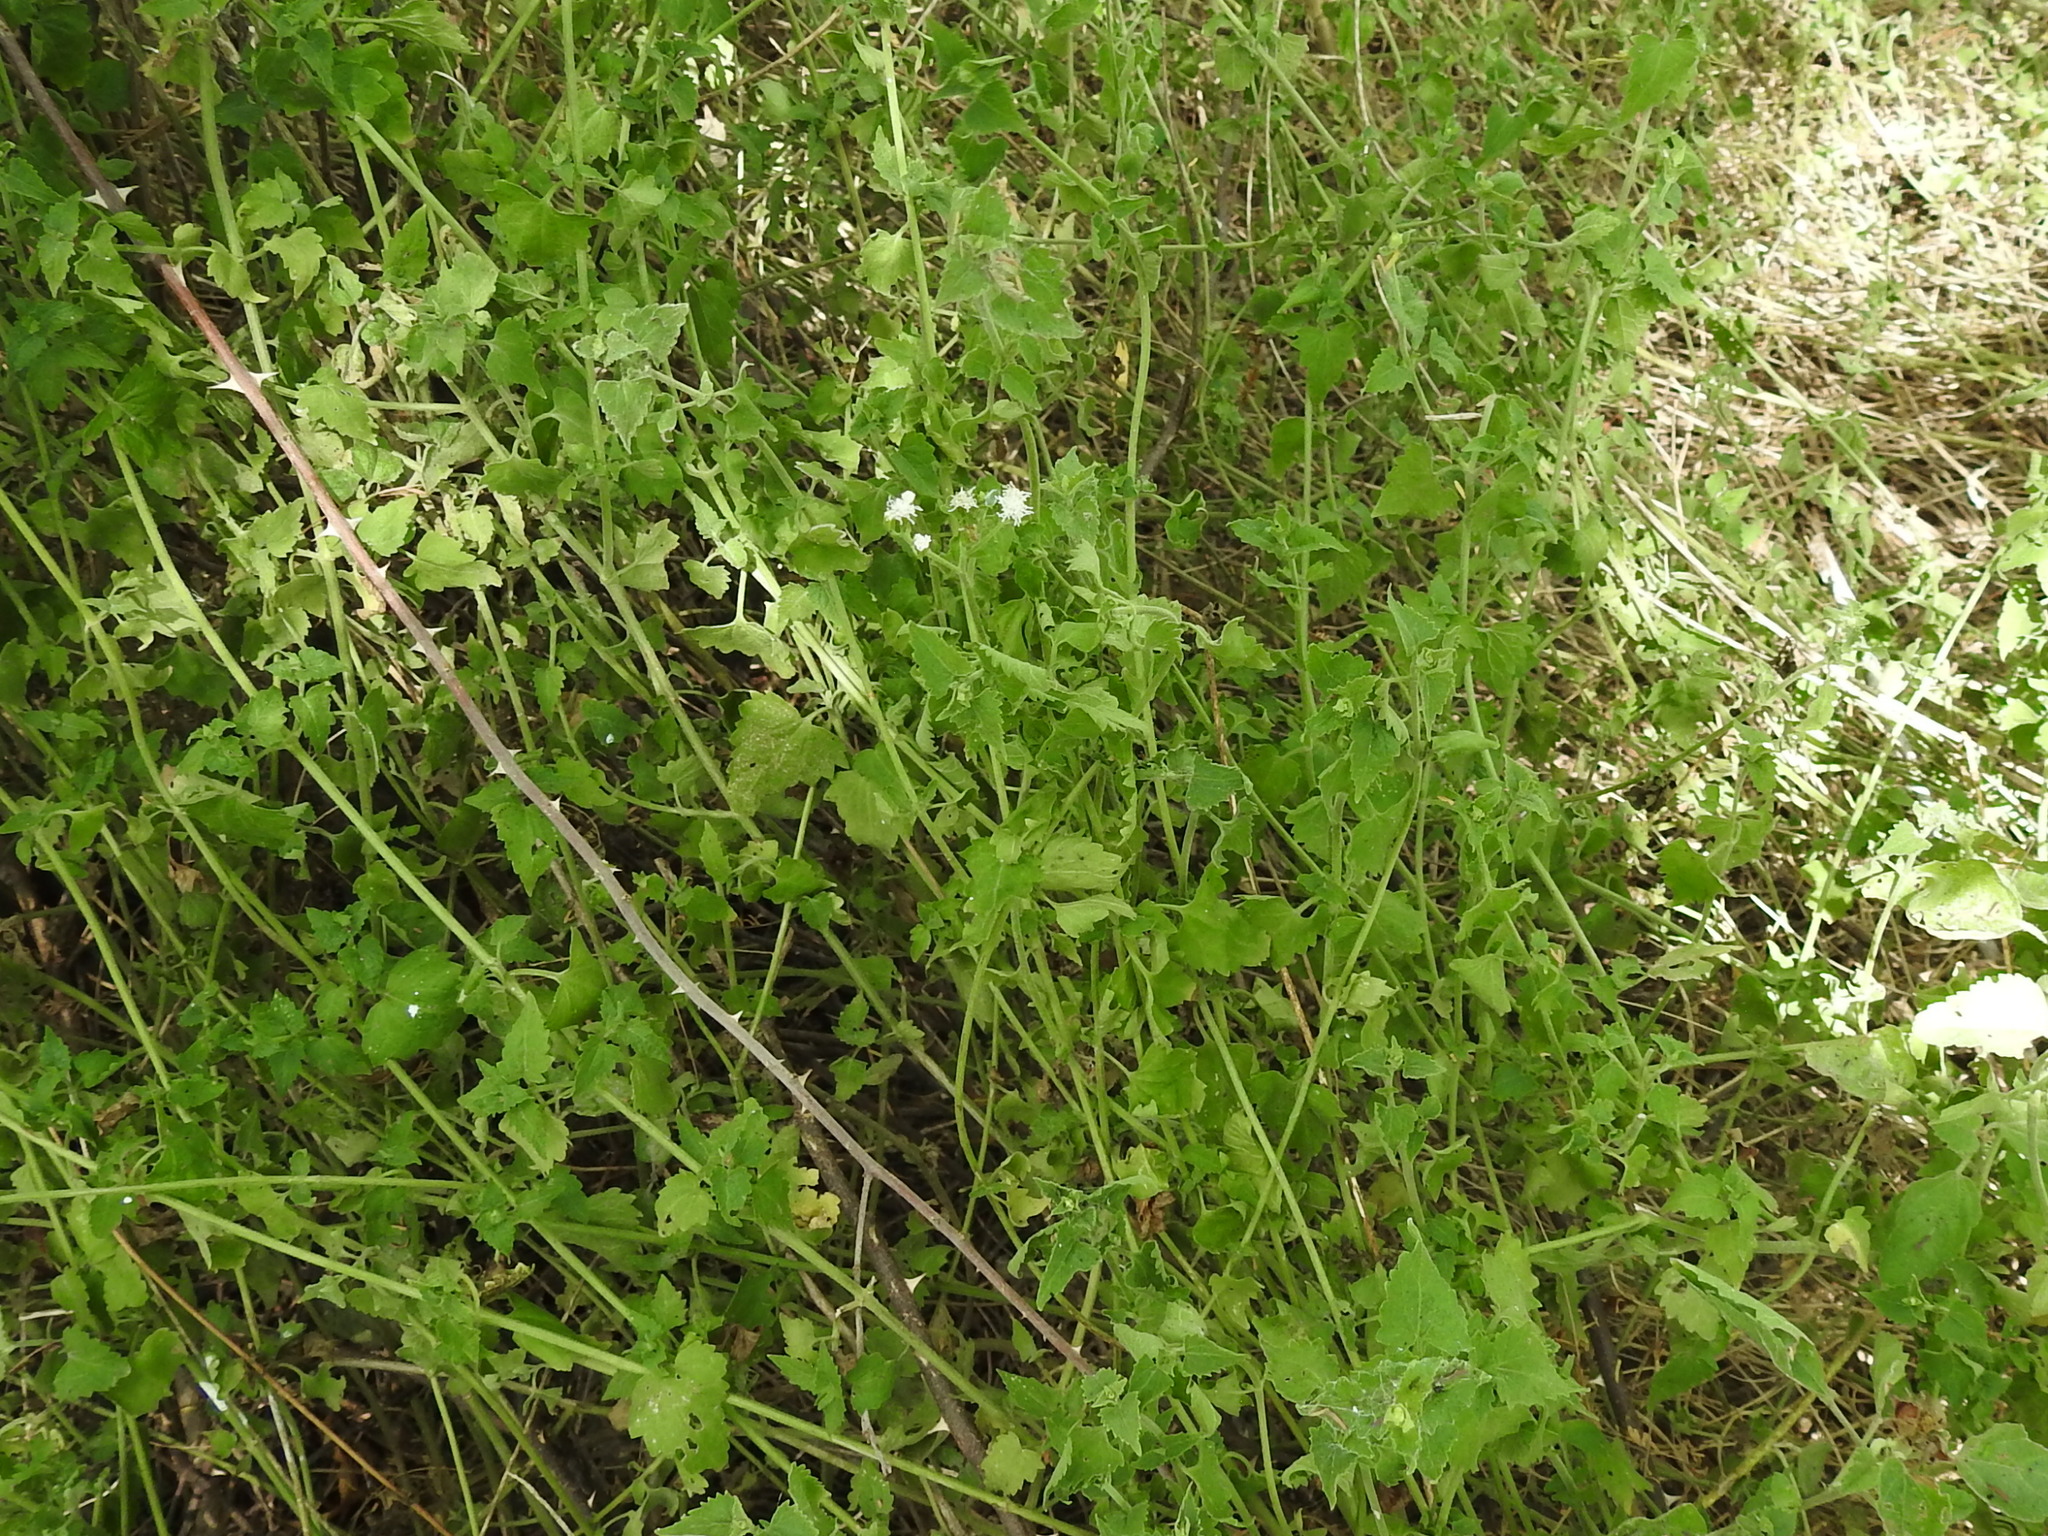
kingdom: Plantae
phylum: Tracheophyta
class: Magnoliopsida
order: Asterales
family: Asteraceae
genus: Fleischmannia
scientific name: Fleischmannia incarnata
